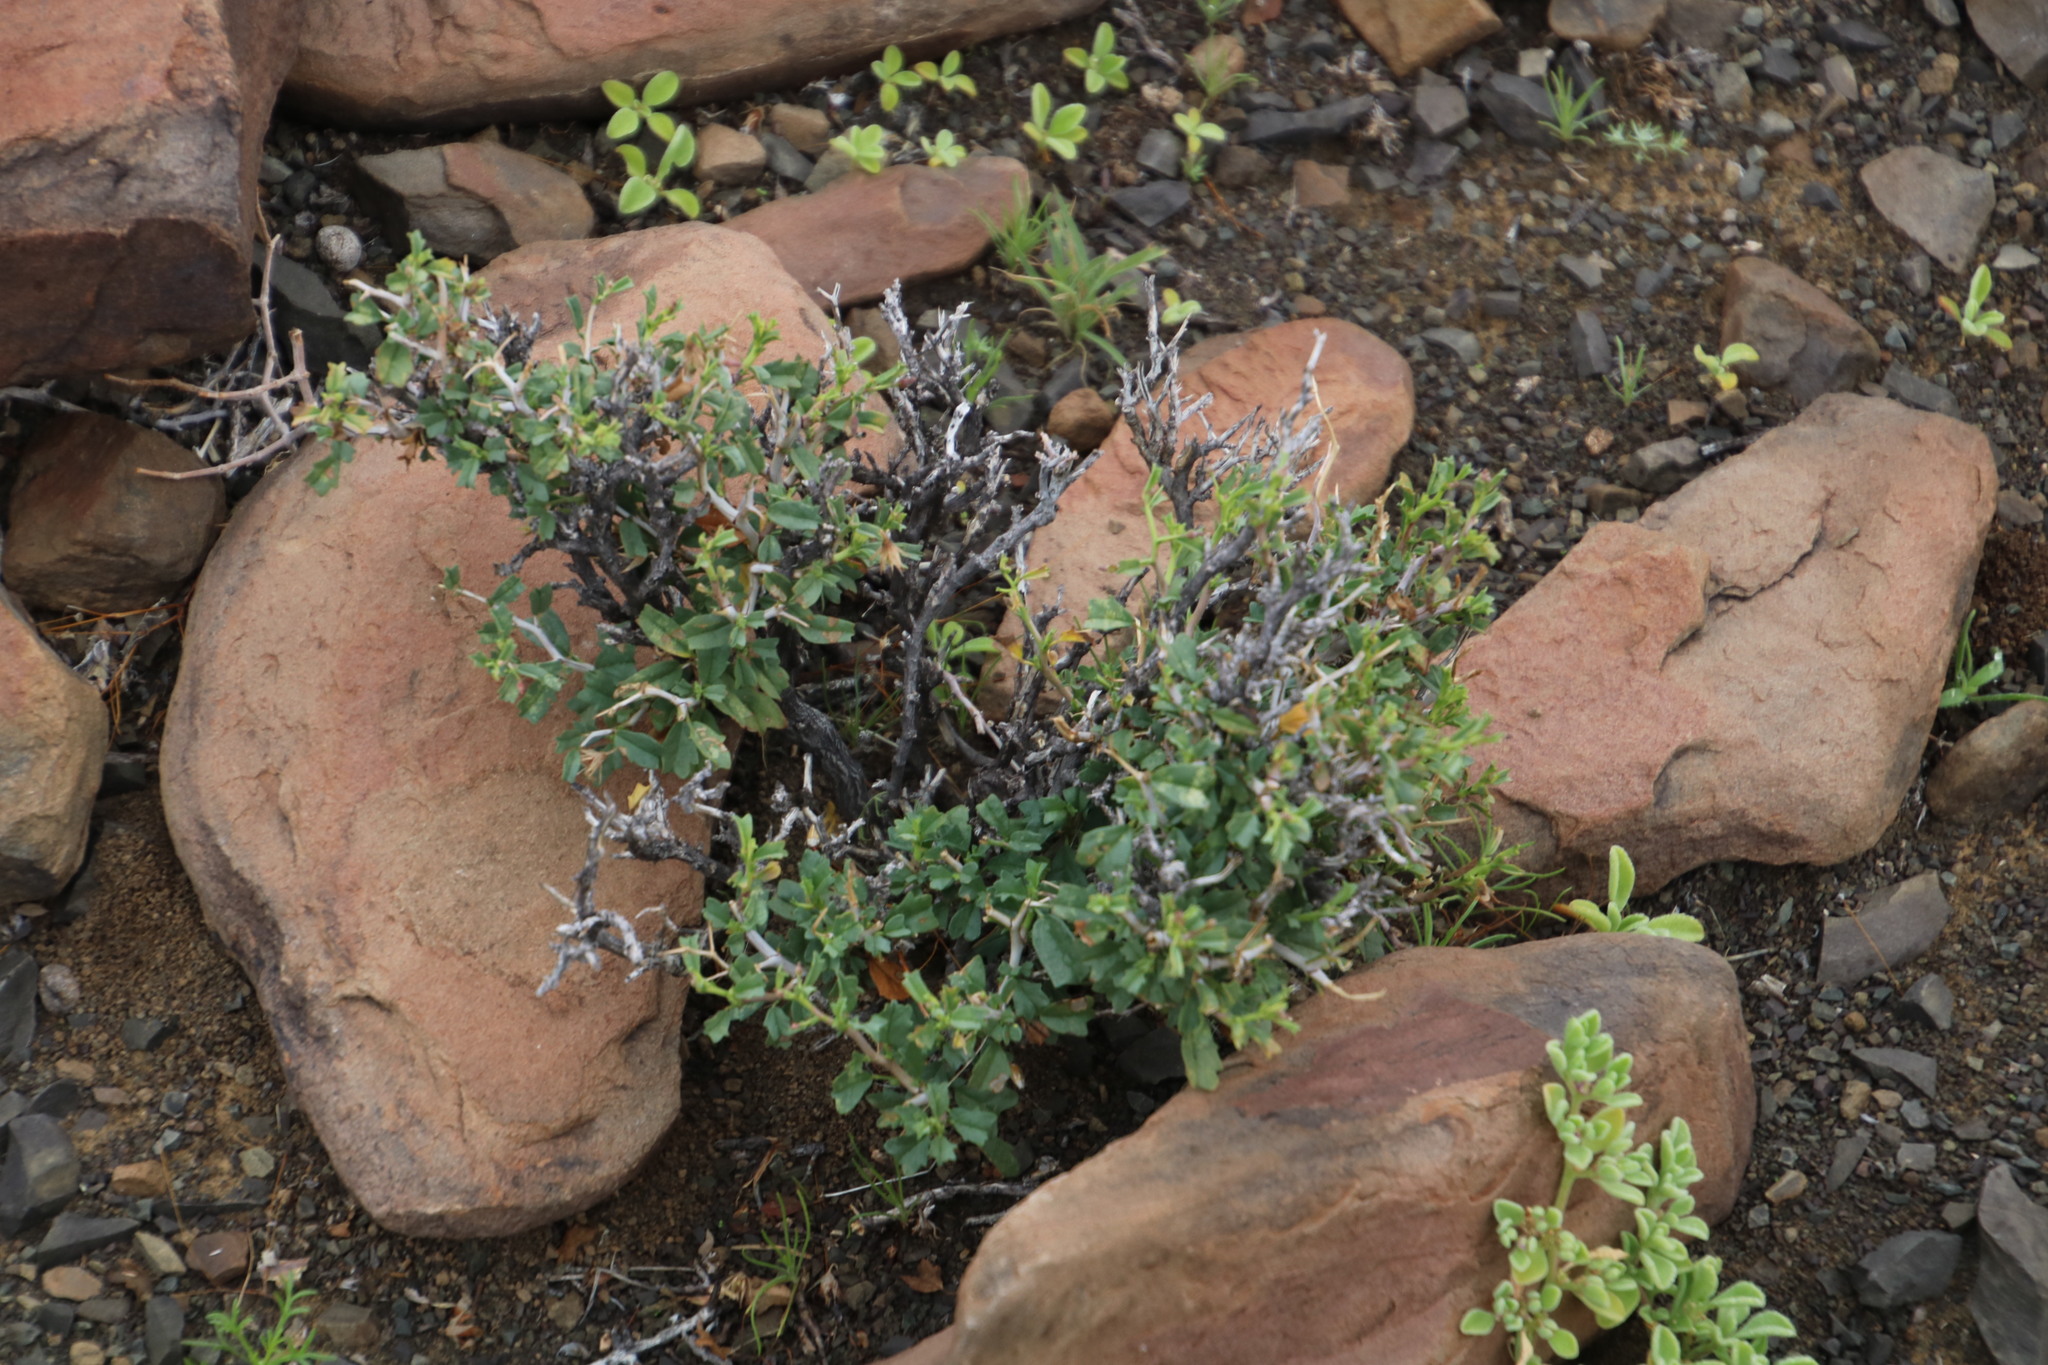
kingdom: Plantae
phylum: Tracheophyta
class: Magnoliopsida
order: Malvales
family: Malvaceae
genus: Hermannia
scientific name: Hermannia spinosa
